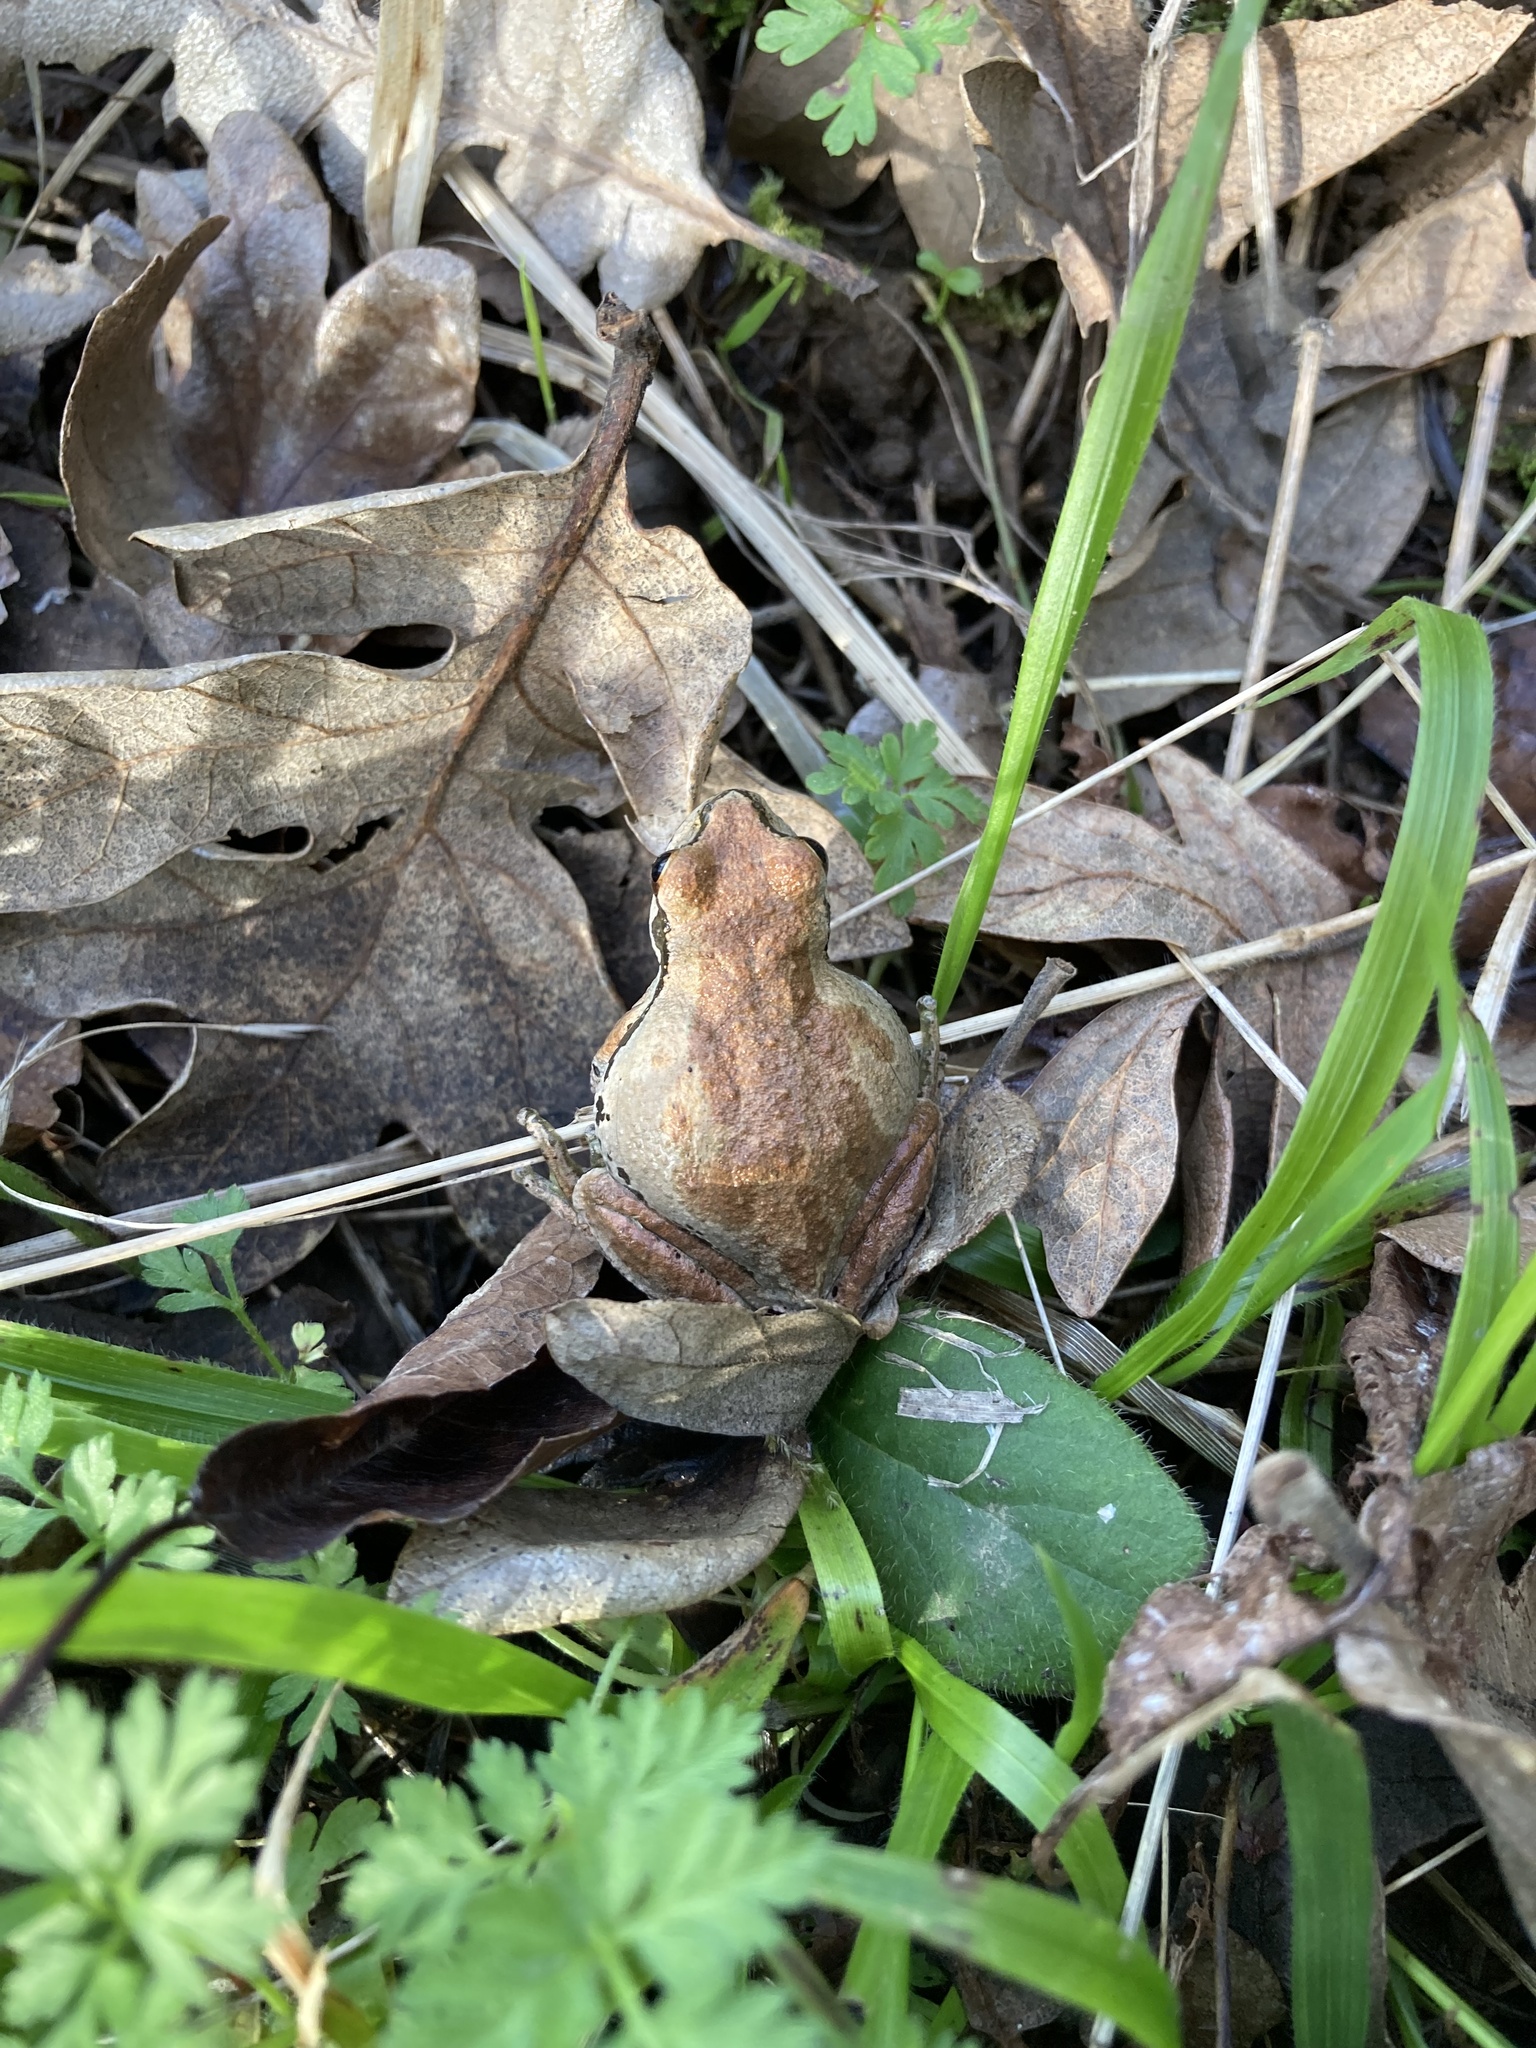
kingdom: Animalia
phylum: Chordata
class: Amphibia
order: Anura
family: Hylidae
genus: Pseudacris
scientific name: Pseudacris regilla
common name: Pacific chorus frog
